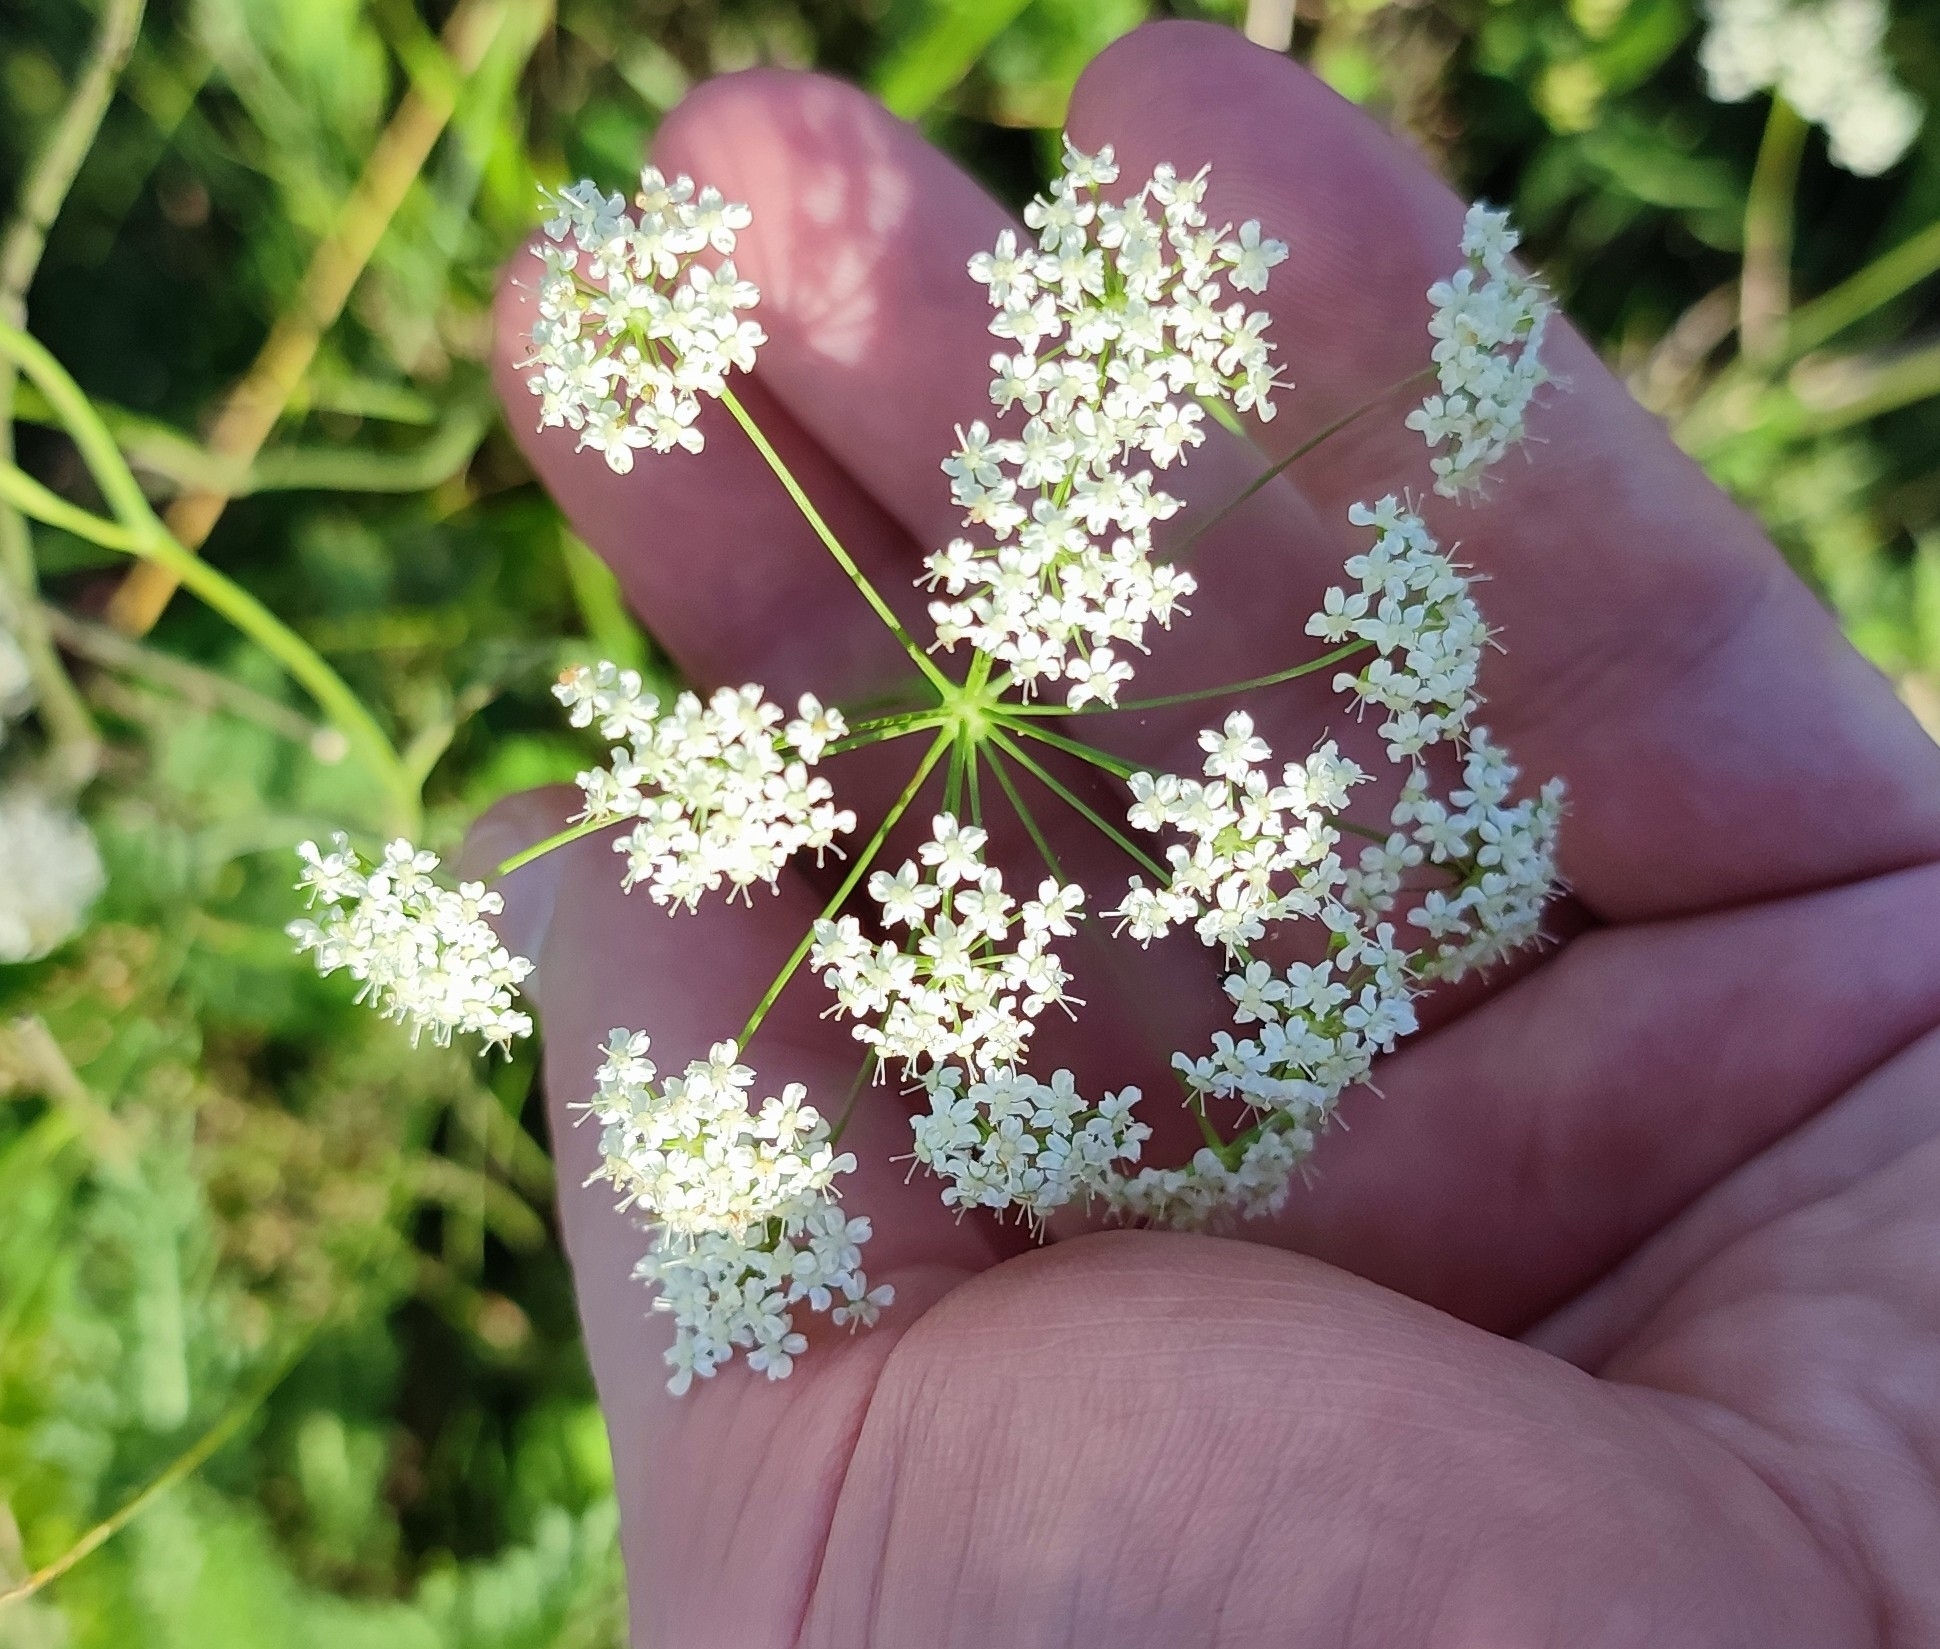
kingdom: Plantae
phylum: Tracheophyta
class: Magnoliopsida
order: Apiales
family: Apiaceae
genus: Pimpinella
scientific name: Pimpinella saxifraga
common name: Burnet-saxifrage
